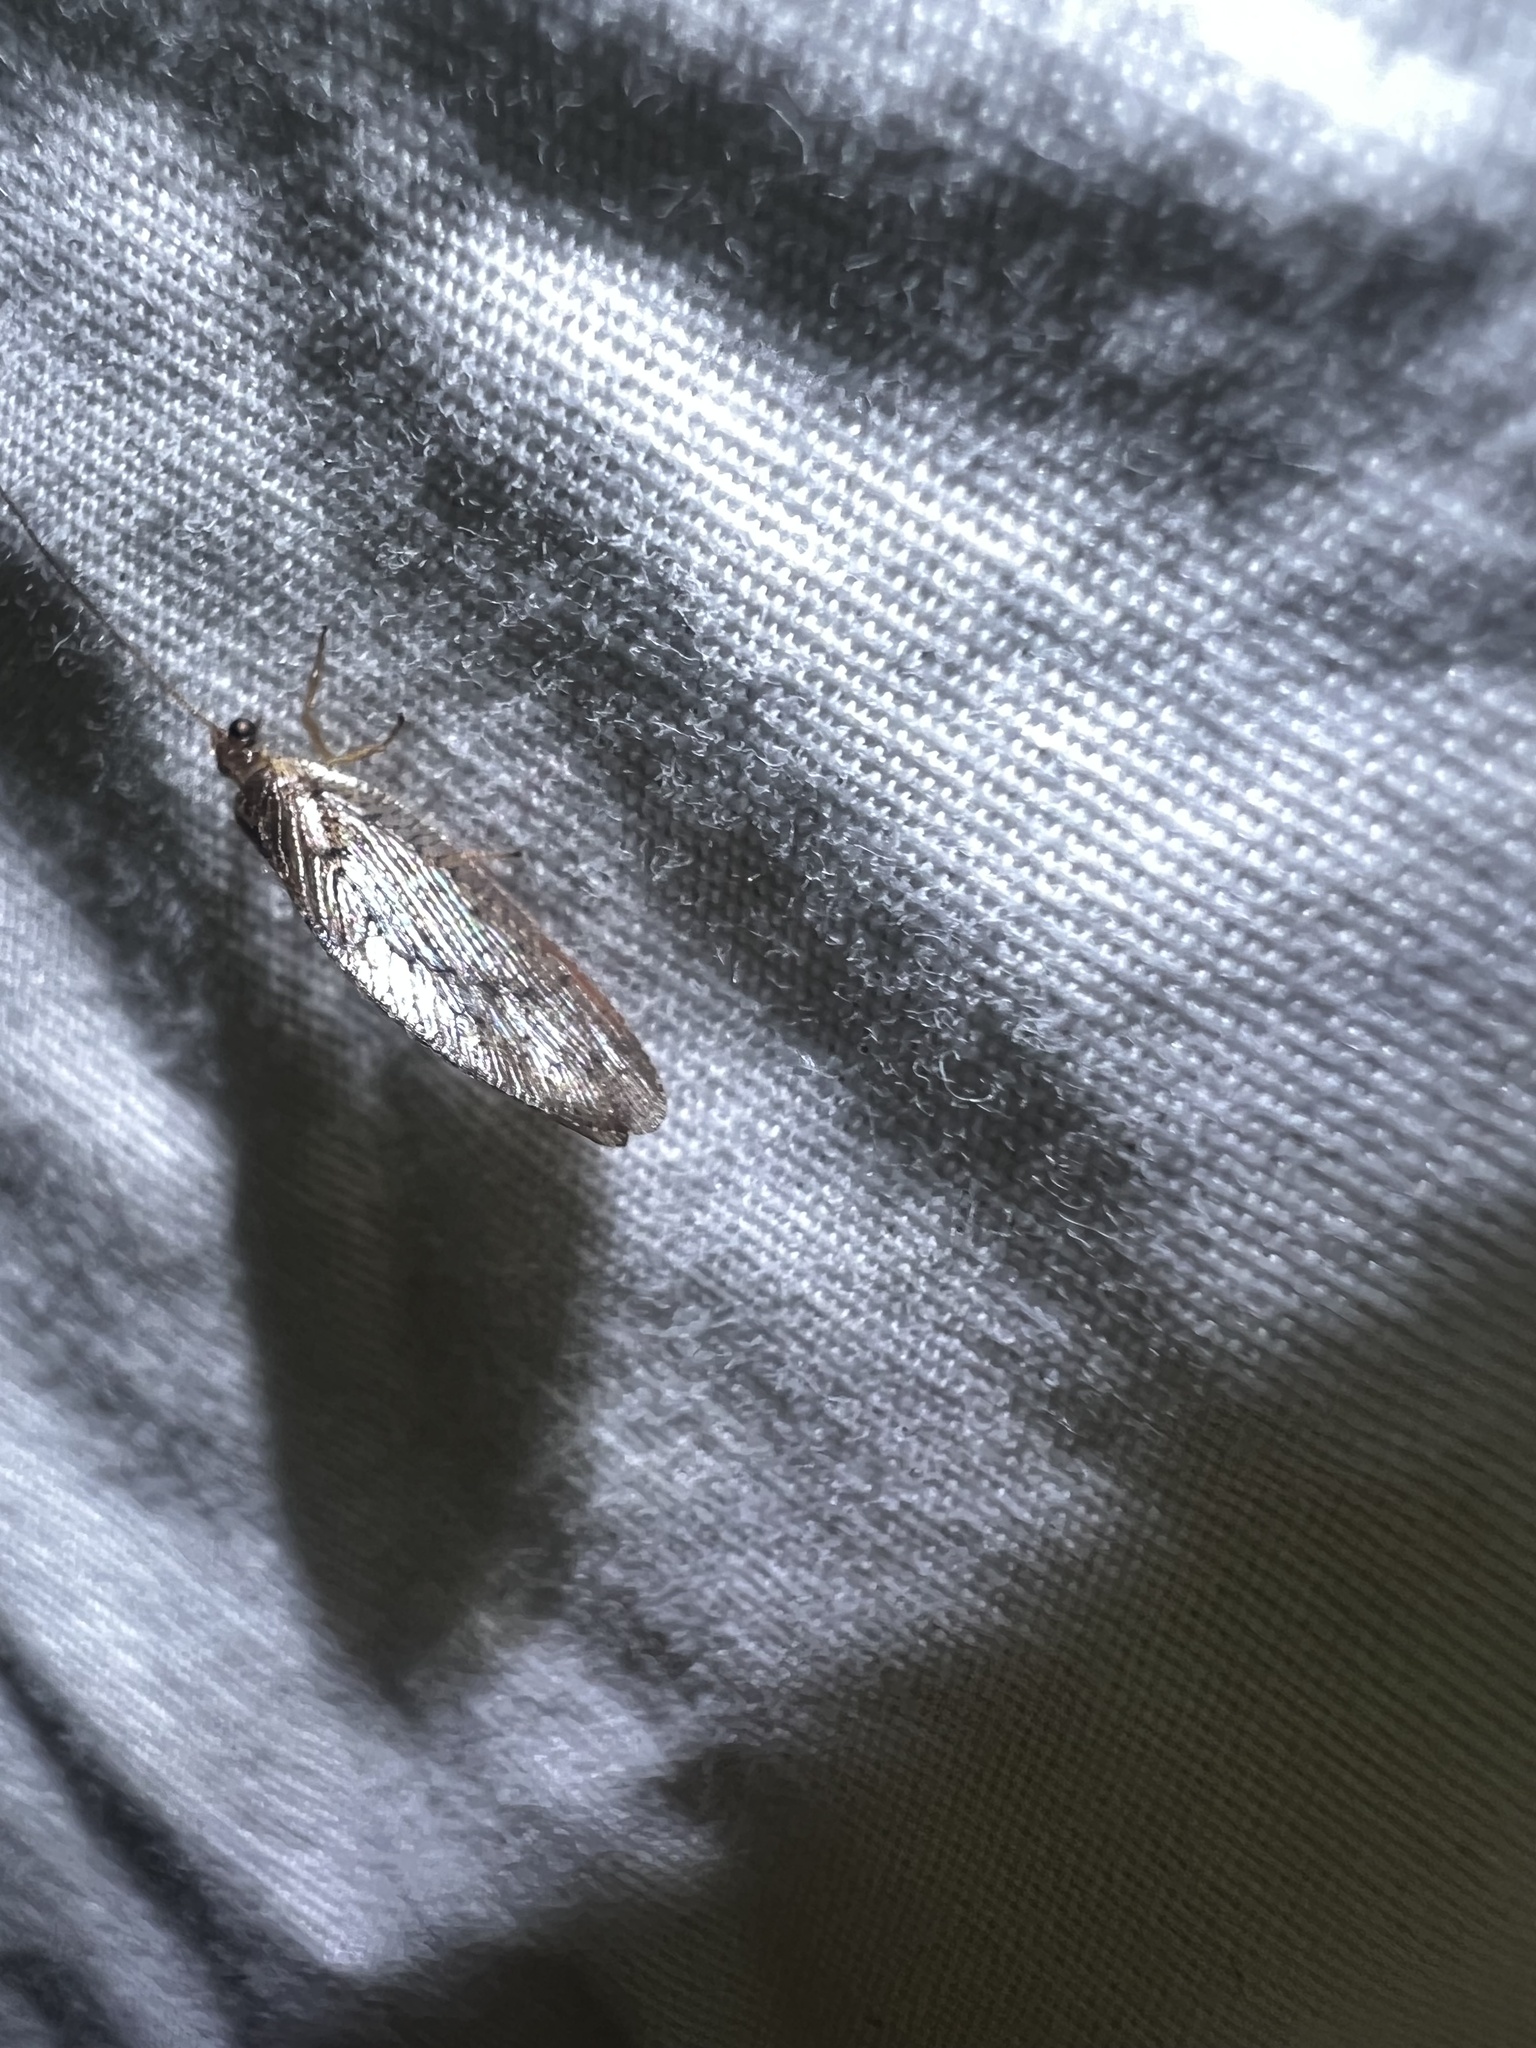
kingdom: Animalia
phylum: Arthropoda
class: Insecta
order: Neuroptera
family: Hemerobiidae
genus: Hemerobius
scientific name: Hemerobius stigma
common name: Brown pine lacewing
